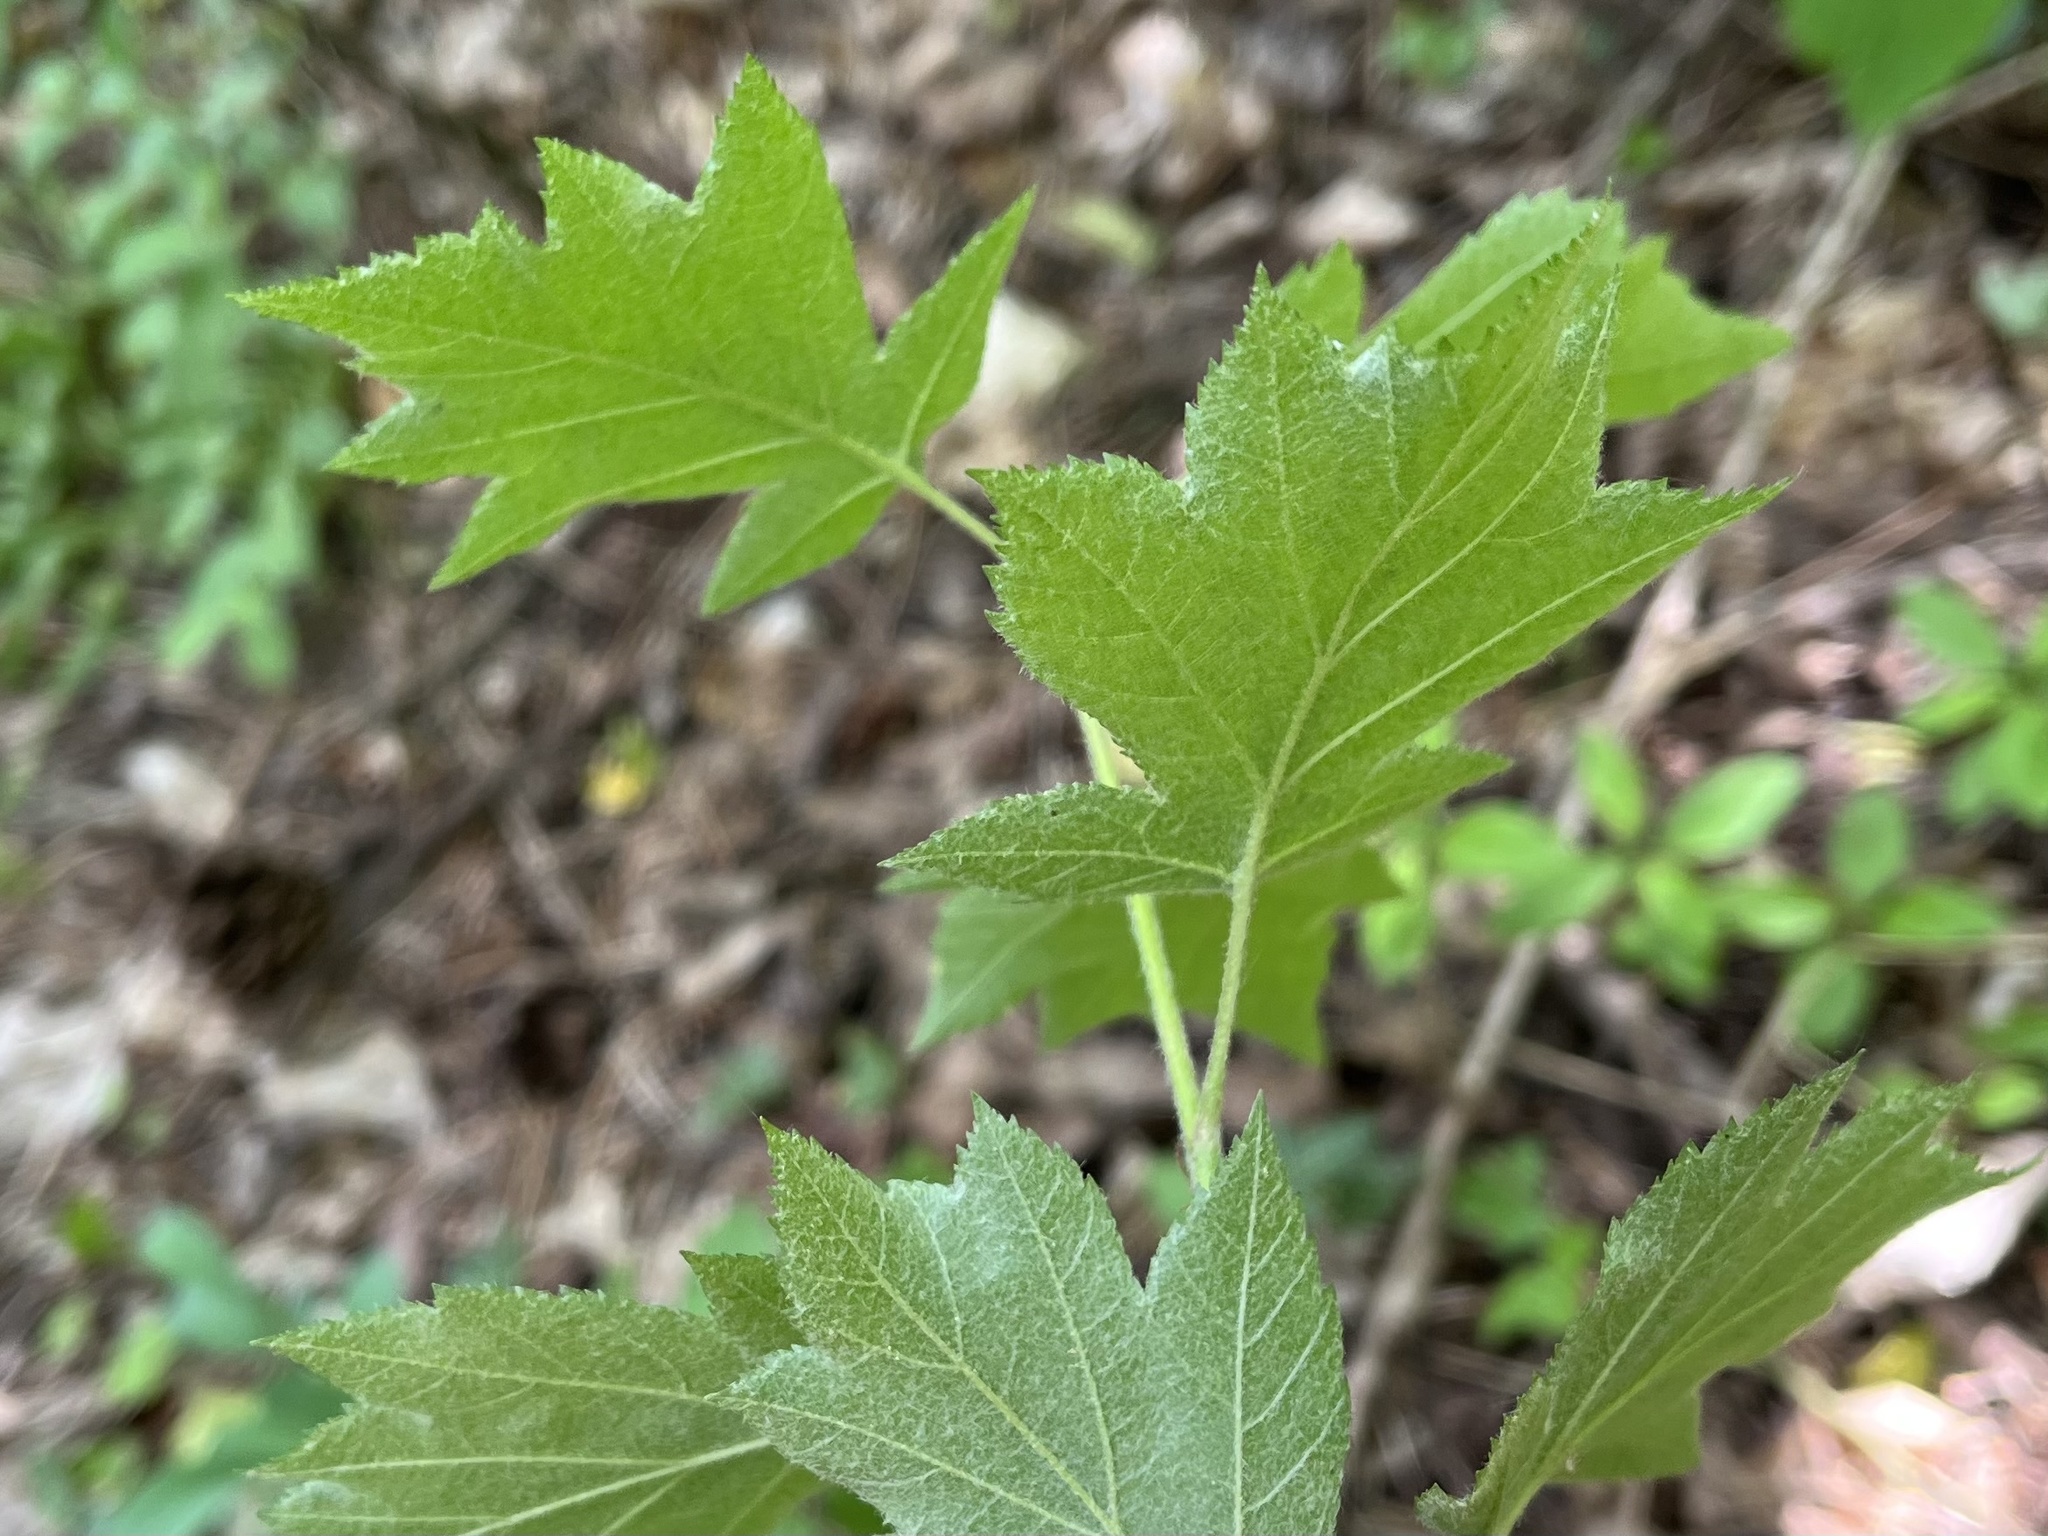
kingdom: Plantae
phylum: Tracheophyta
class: Magnoliopsida
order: Rosales
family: Rosaceae
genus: Torminalis
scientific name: Torminalis glaberrima
